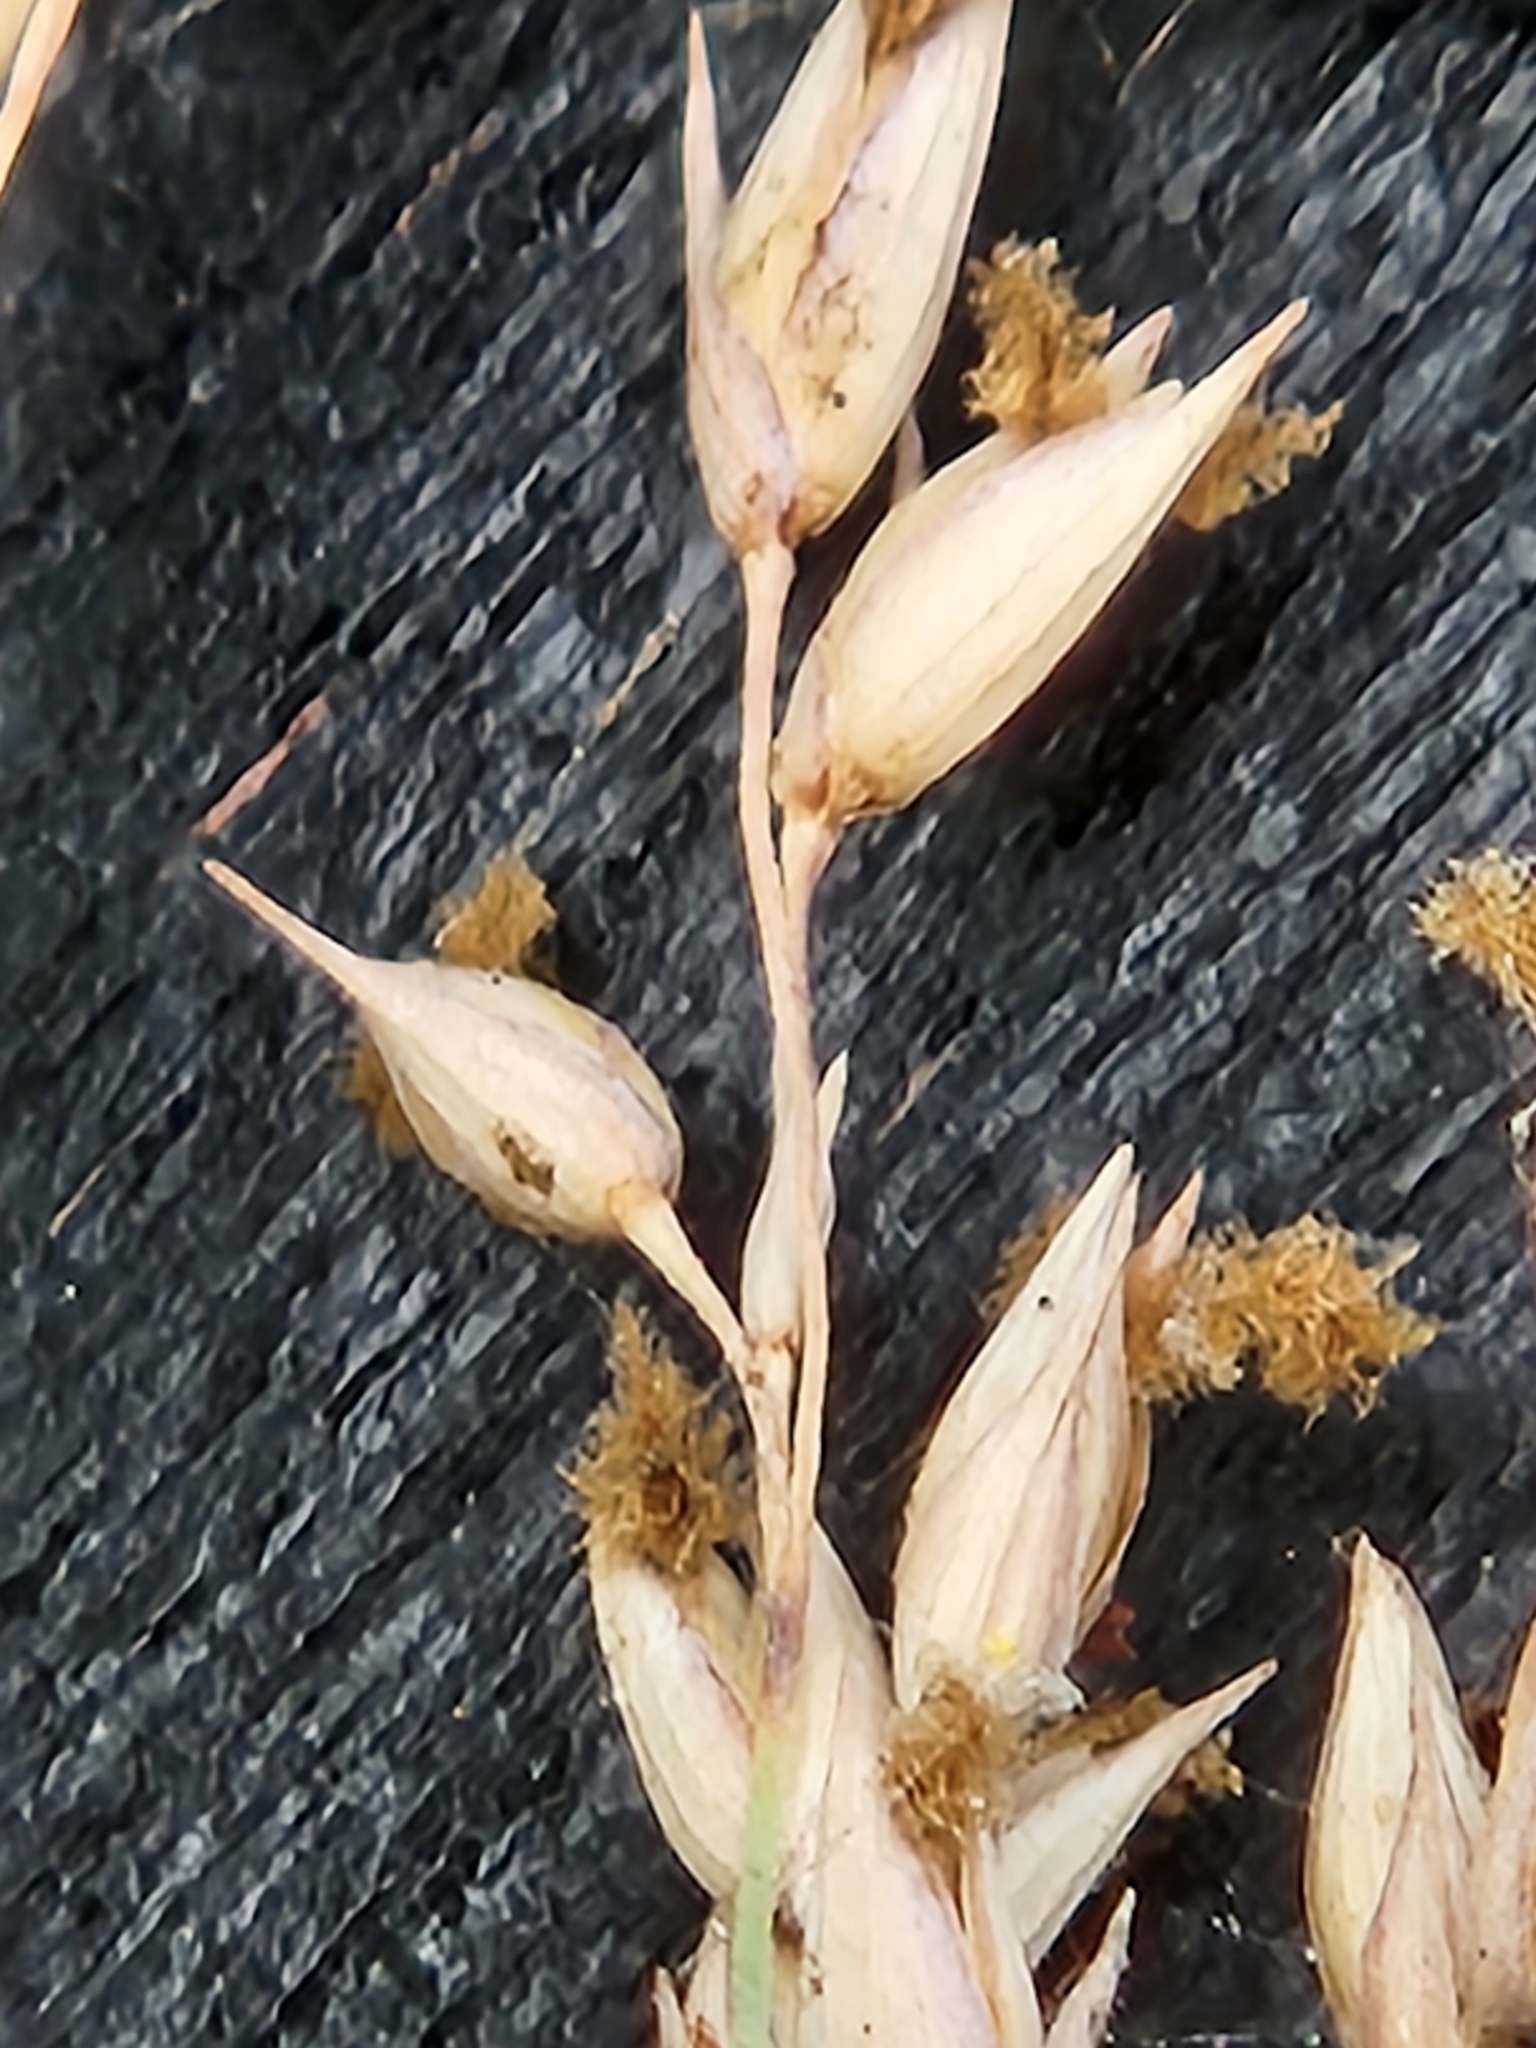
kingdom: Plantae
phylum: Tracheophyta
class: Liliopsida
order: Poales
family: Poaceae
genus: Panicum
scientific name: Panicum virgatum
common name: Switchgrass
